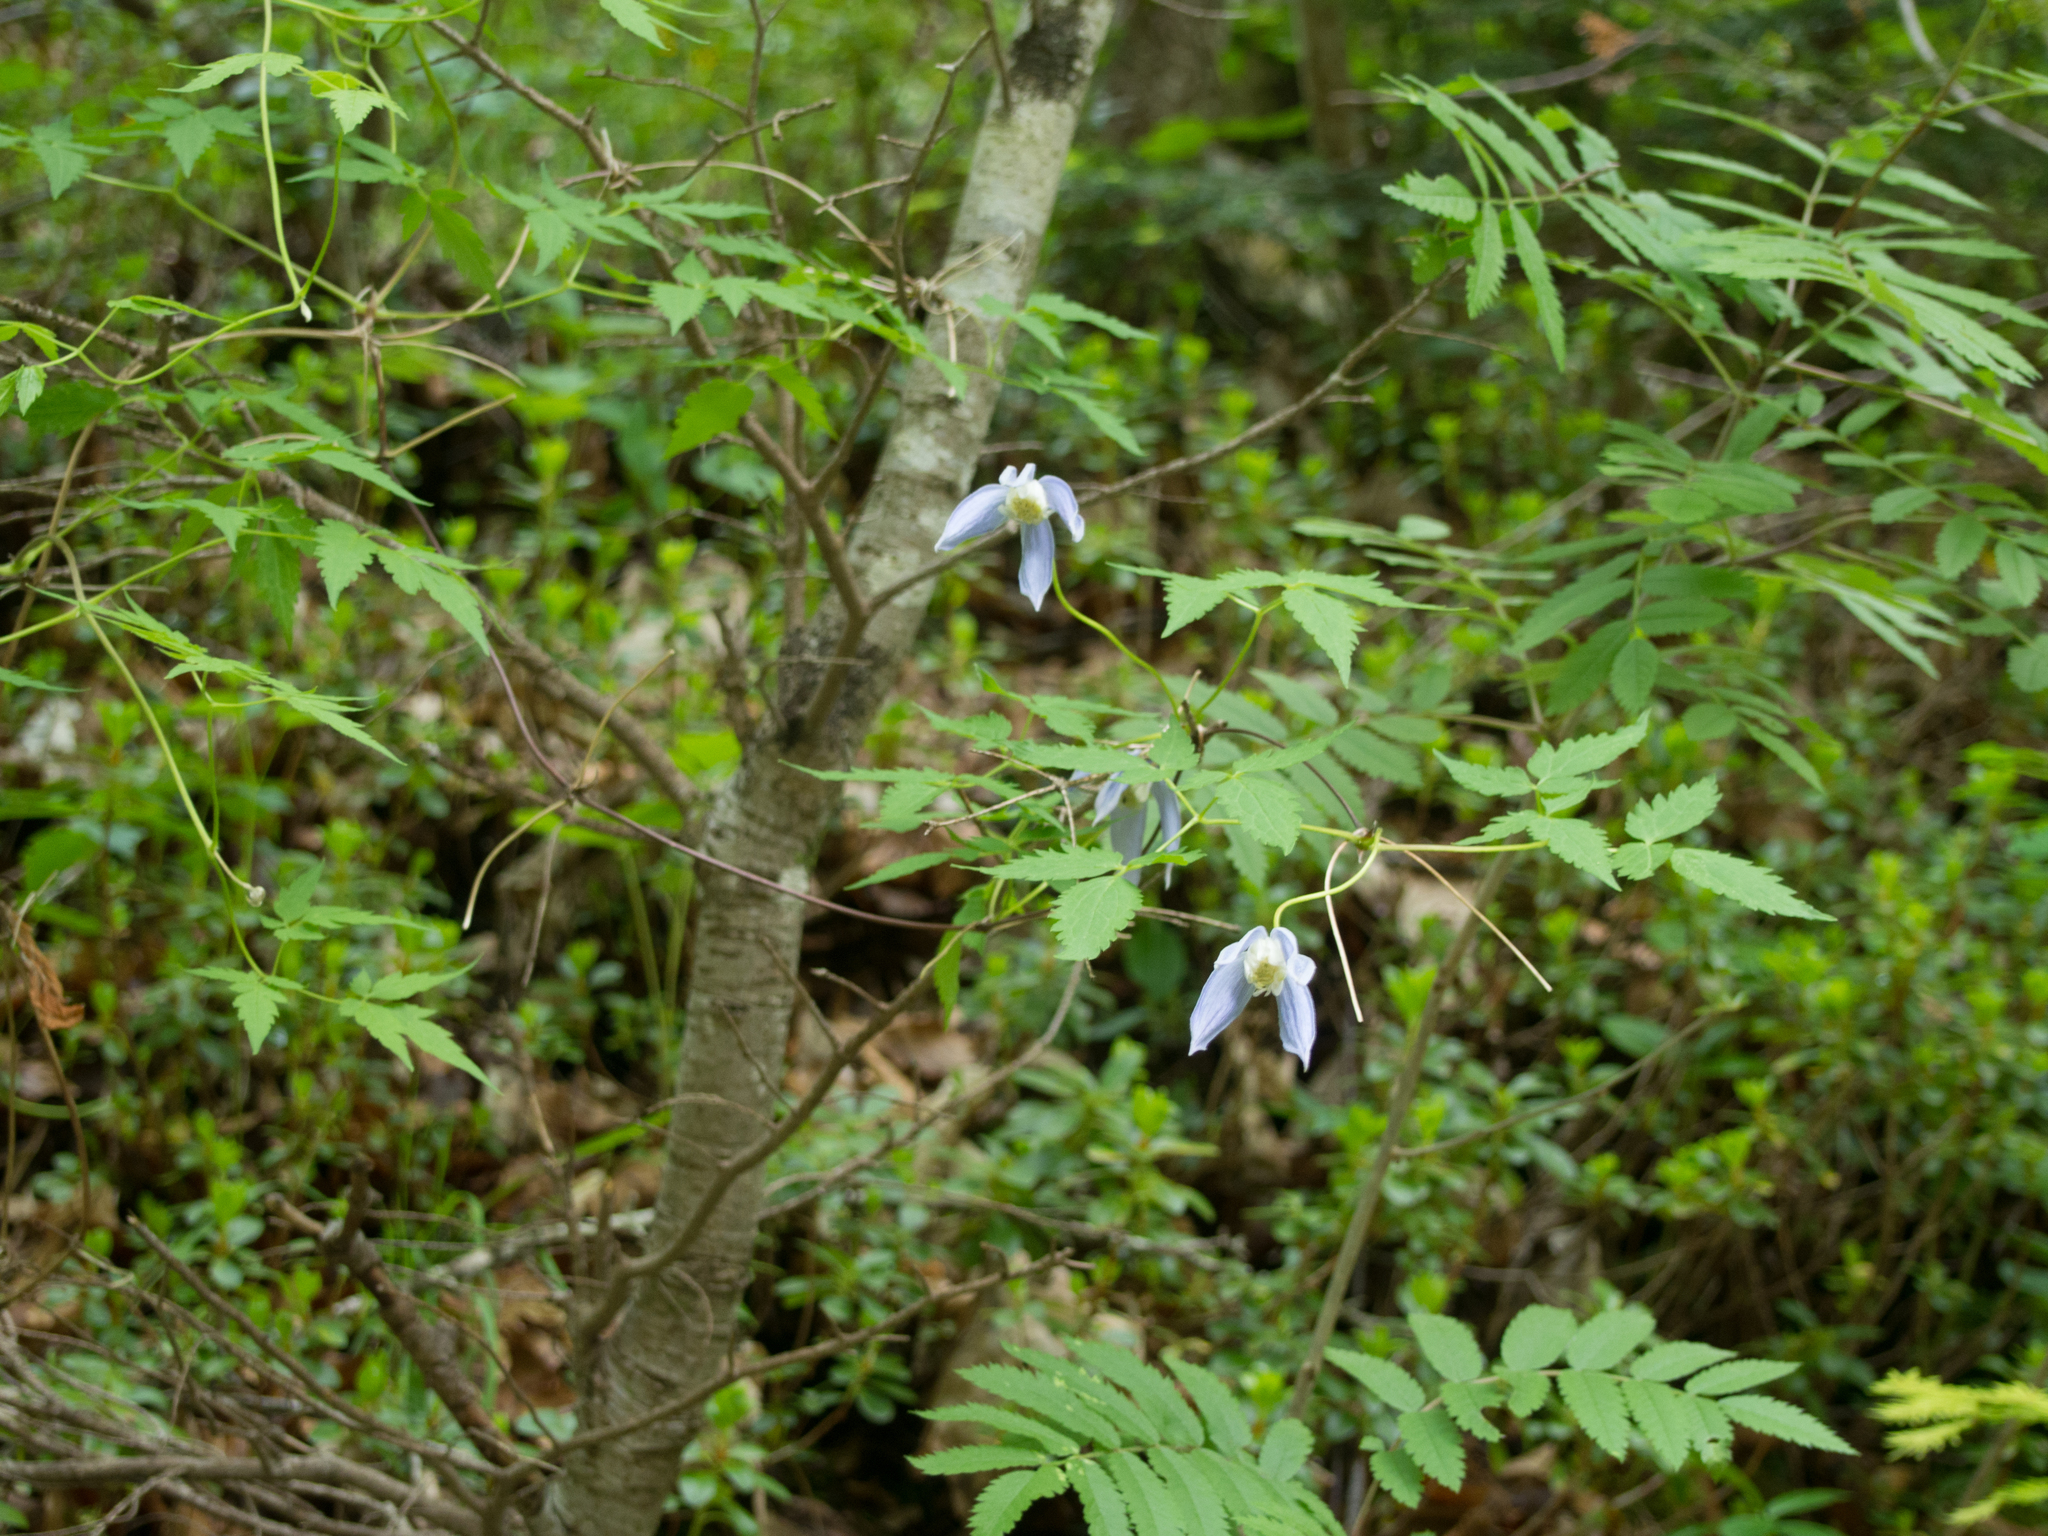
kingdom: Plantae
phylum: Tracheophyta
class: Magnoliopsida
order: Ranunculales
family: Ranunculaceae
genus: Clematis
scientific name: Clematis alpina
